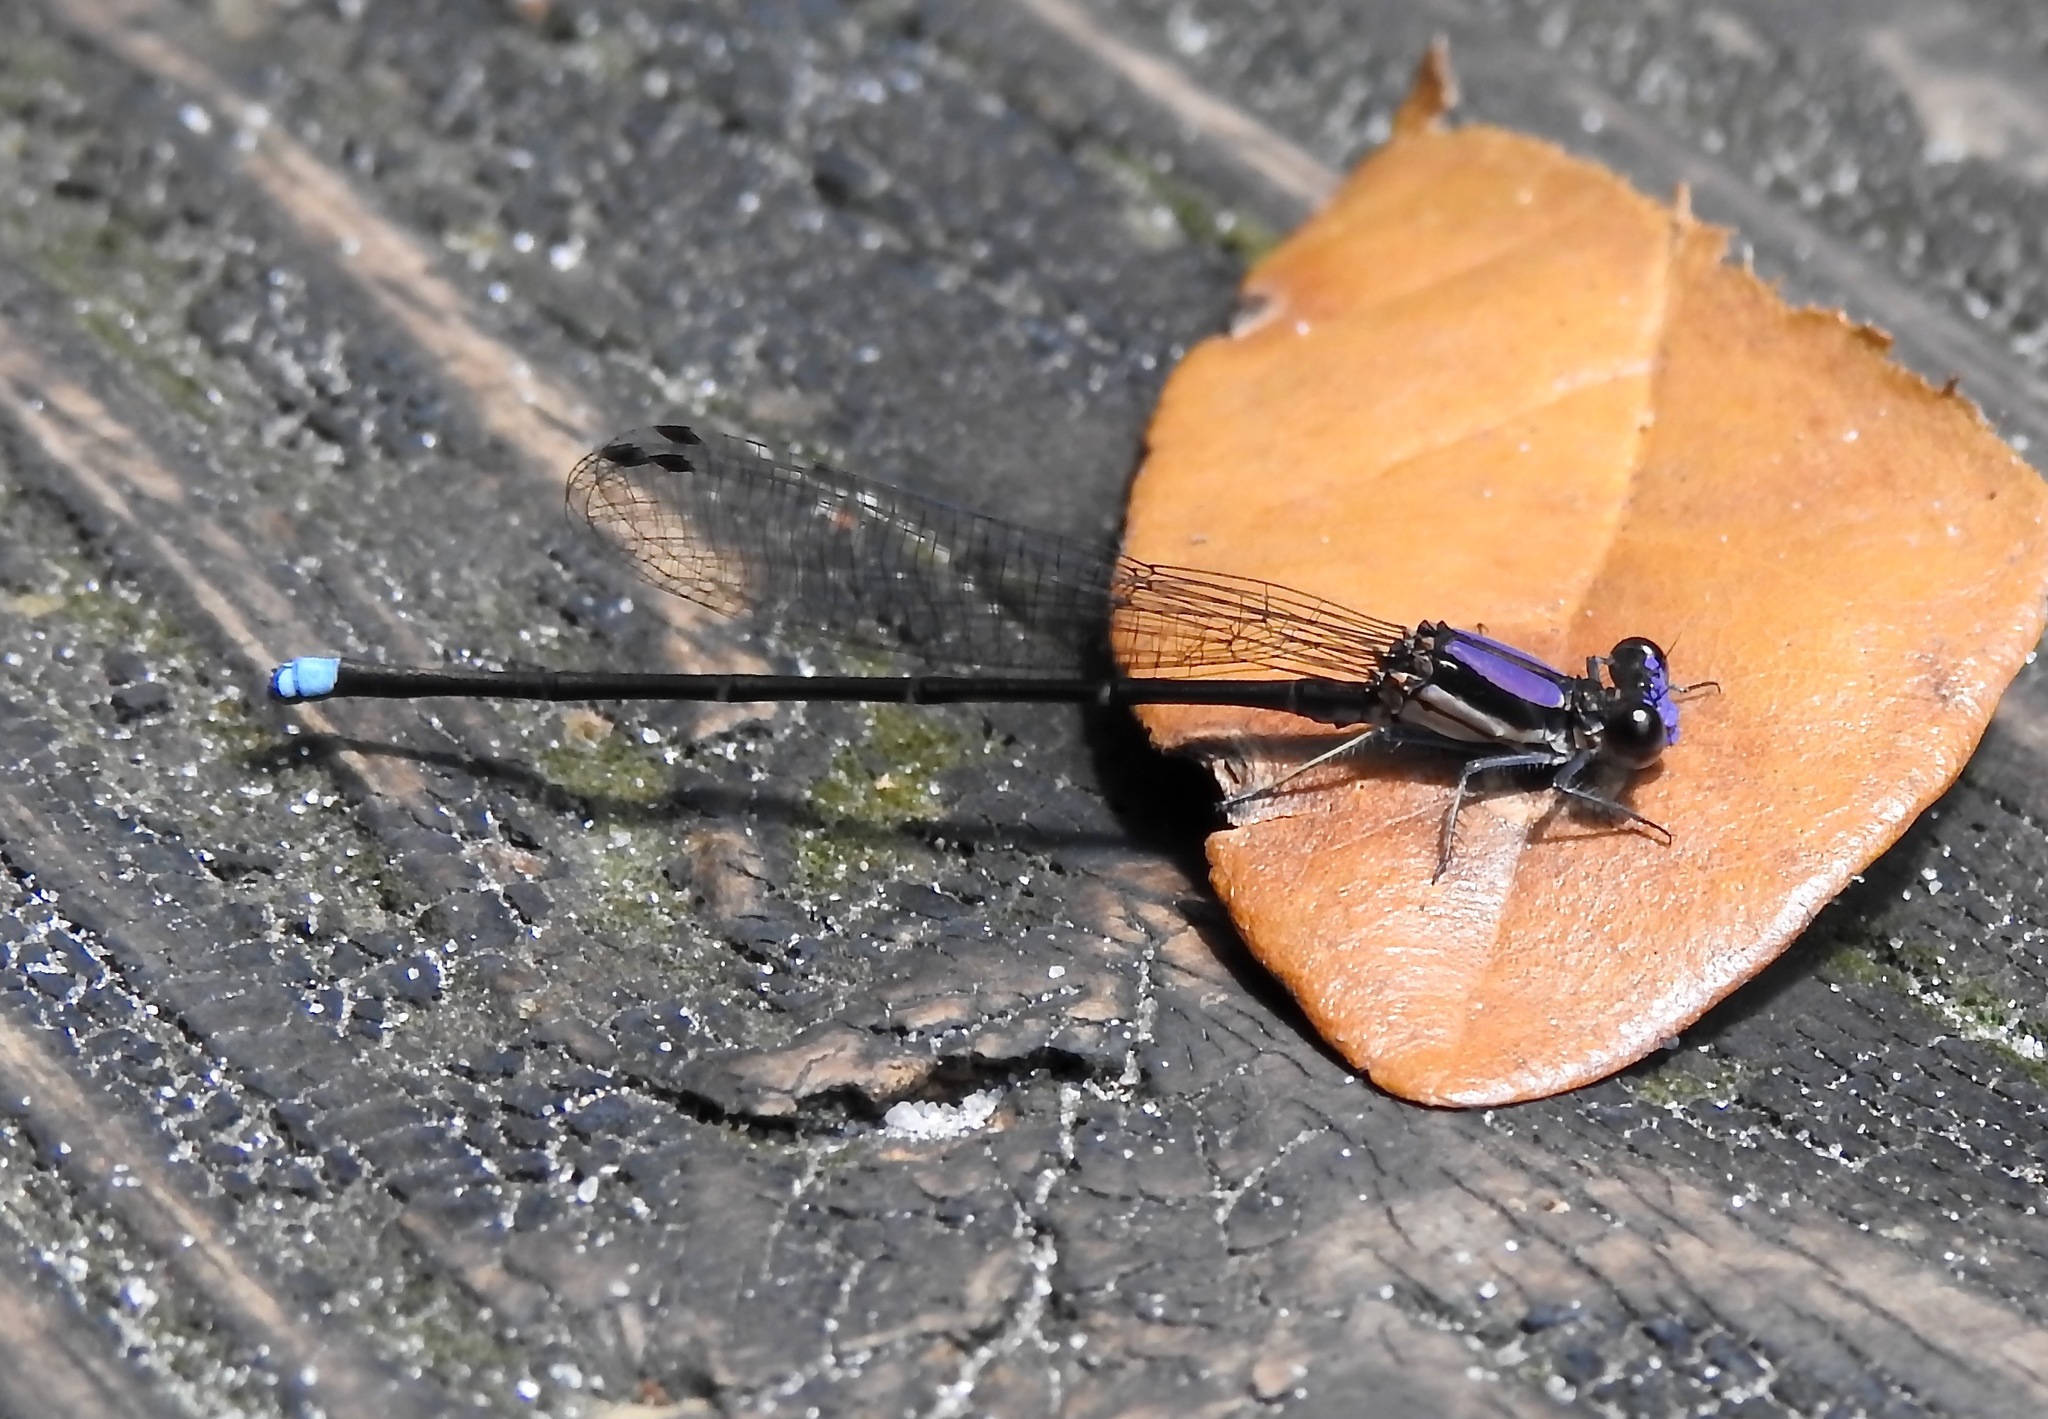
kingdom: Animalia
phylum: Arthropoda
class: Insecta
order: Odonata
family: Coenagrionidae
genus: Argia
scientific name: Argia tibialis
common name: Blue-tipped dancer
